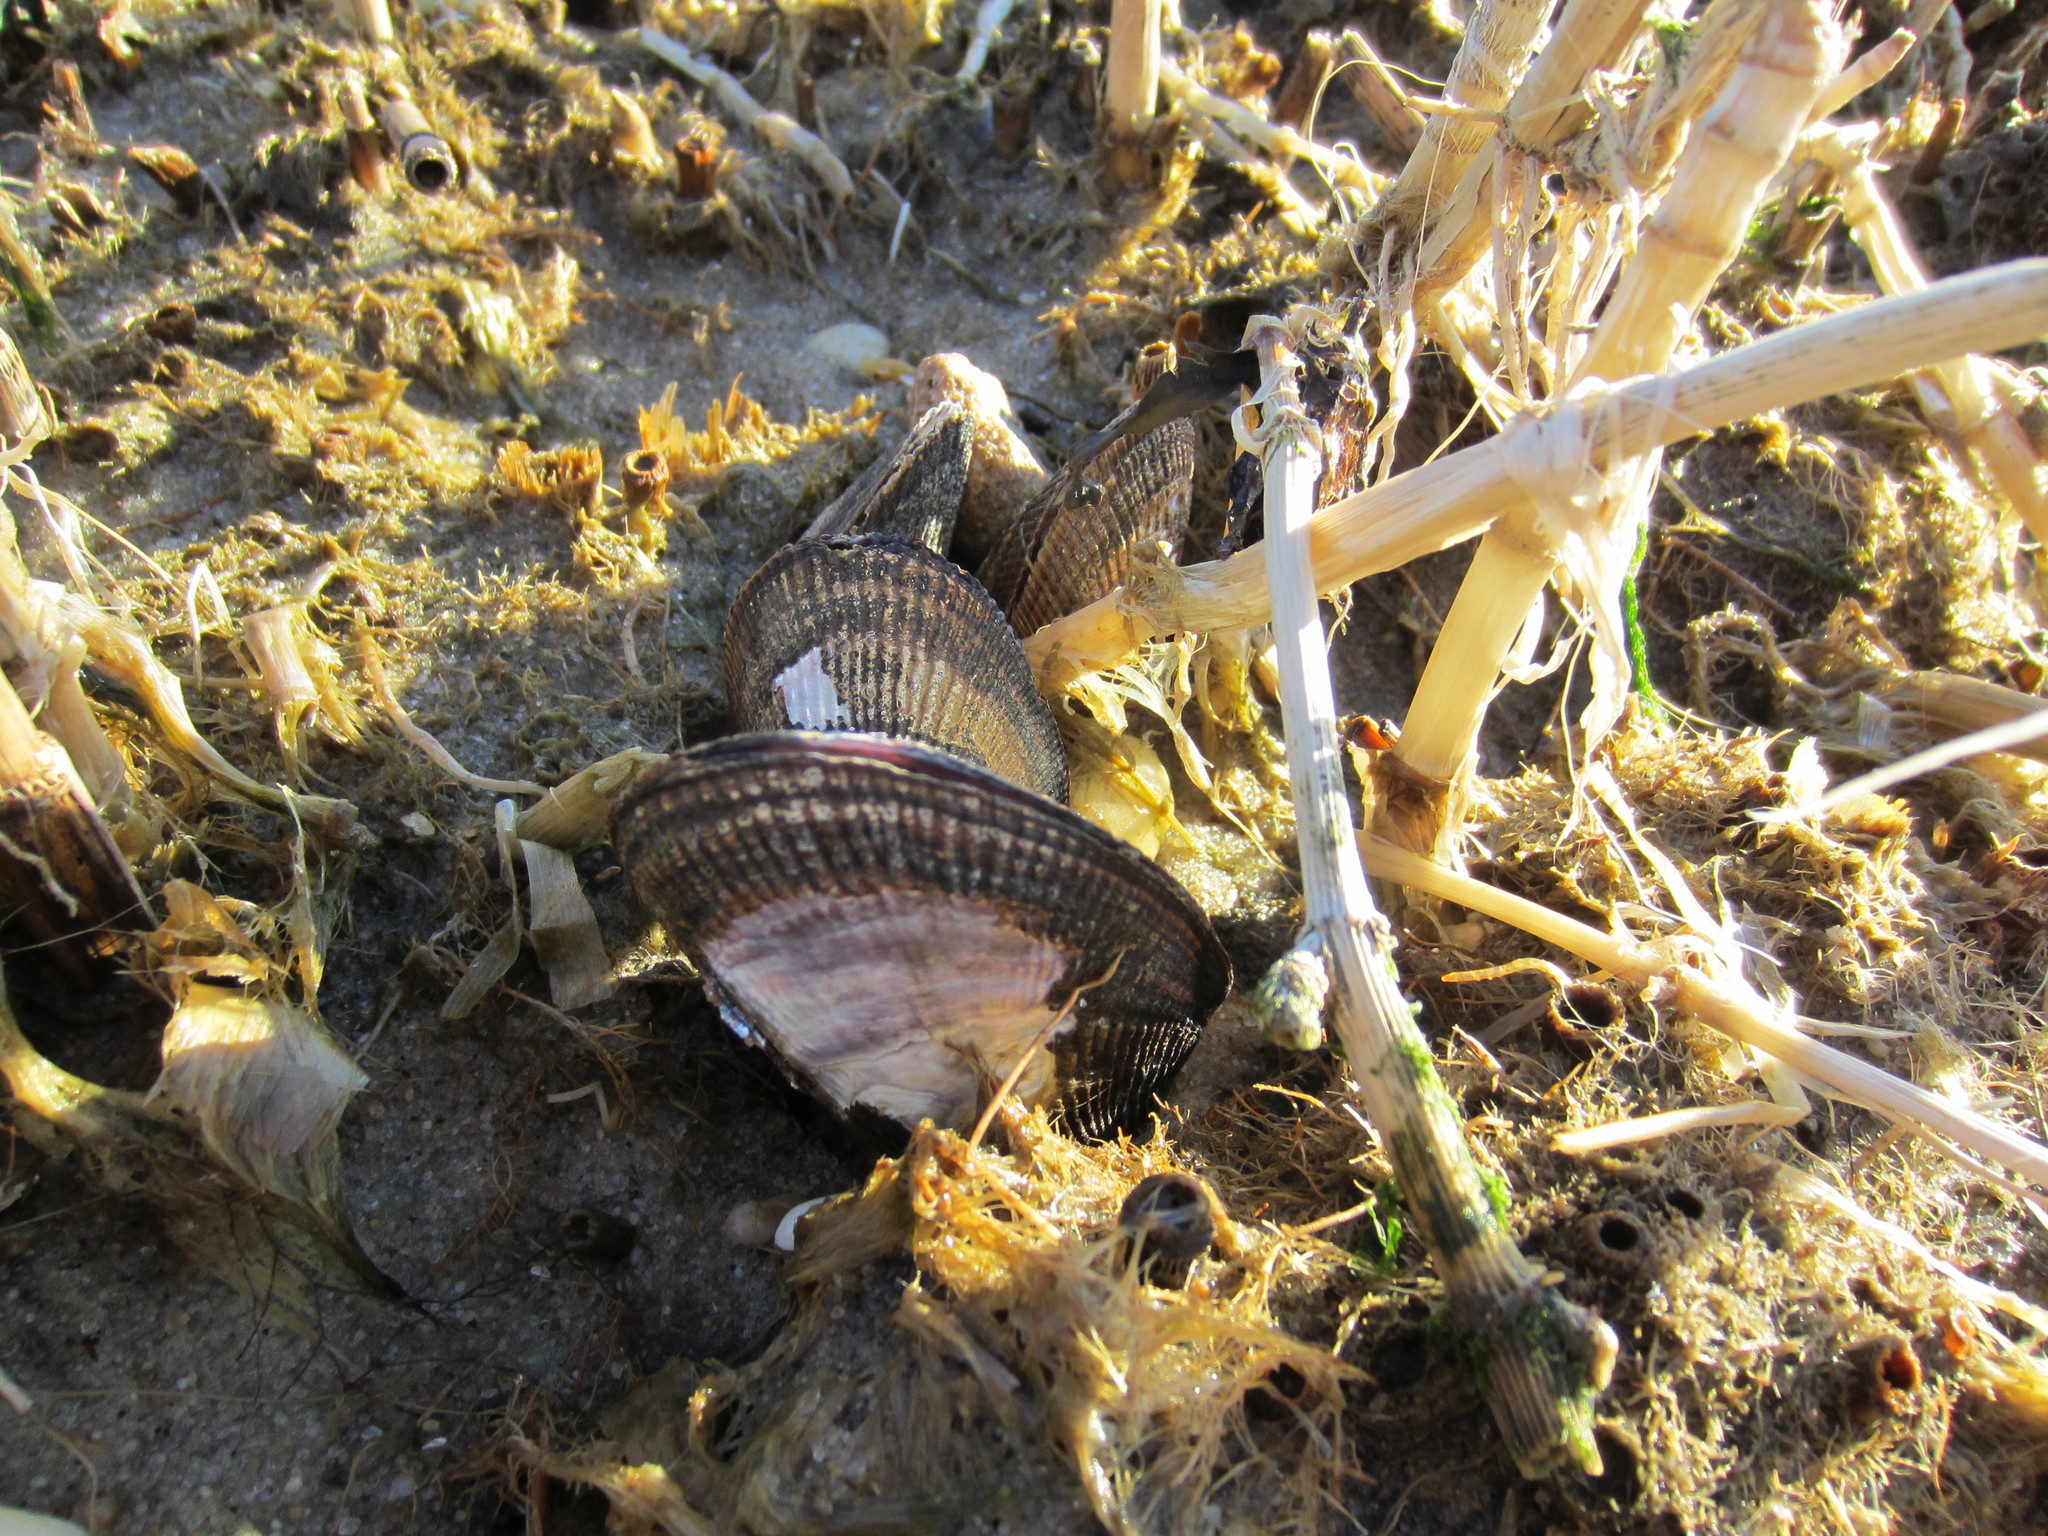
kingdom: Animalia
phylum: Mollusca
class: Bivalvia
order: Mytilida
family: Mytilidae
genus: Geukensia
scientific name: Geukensia demissa
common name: Ribbed mussel
